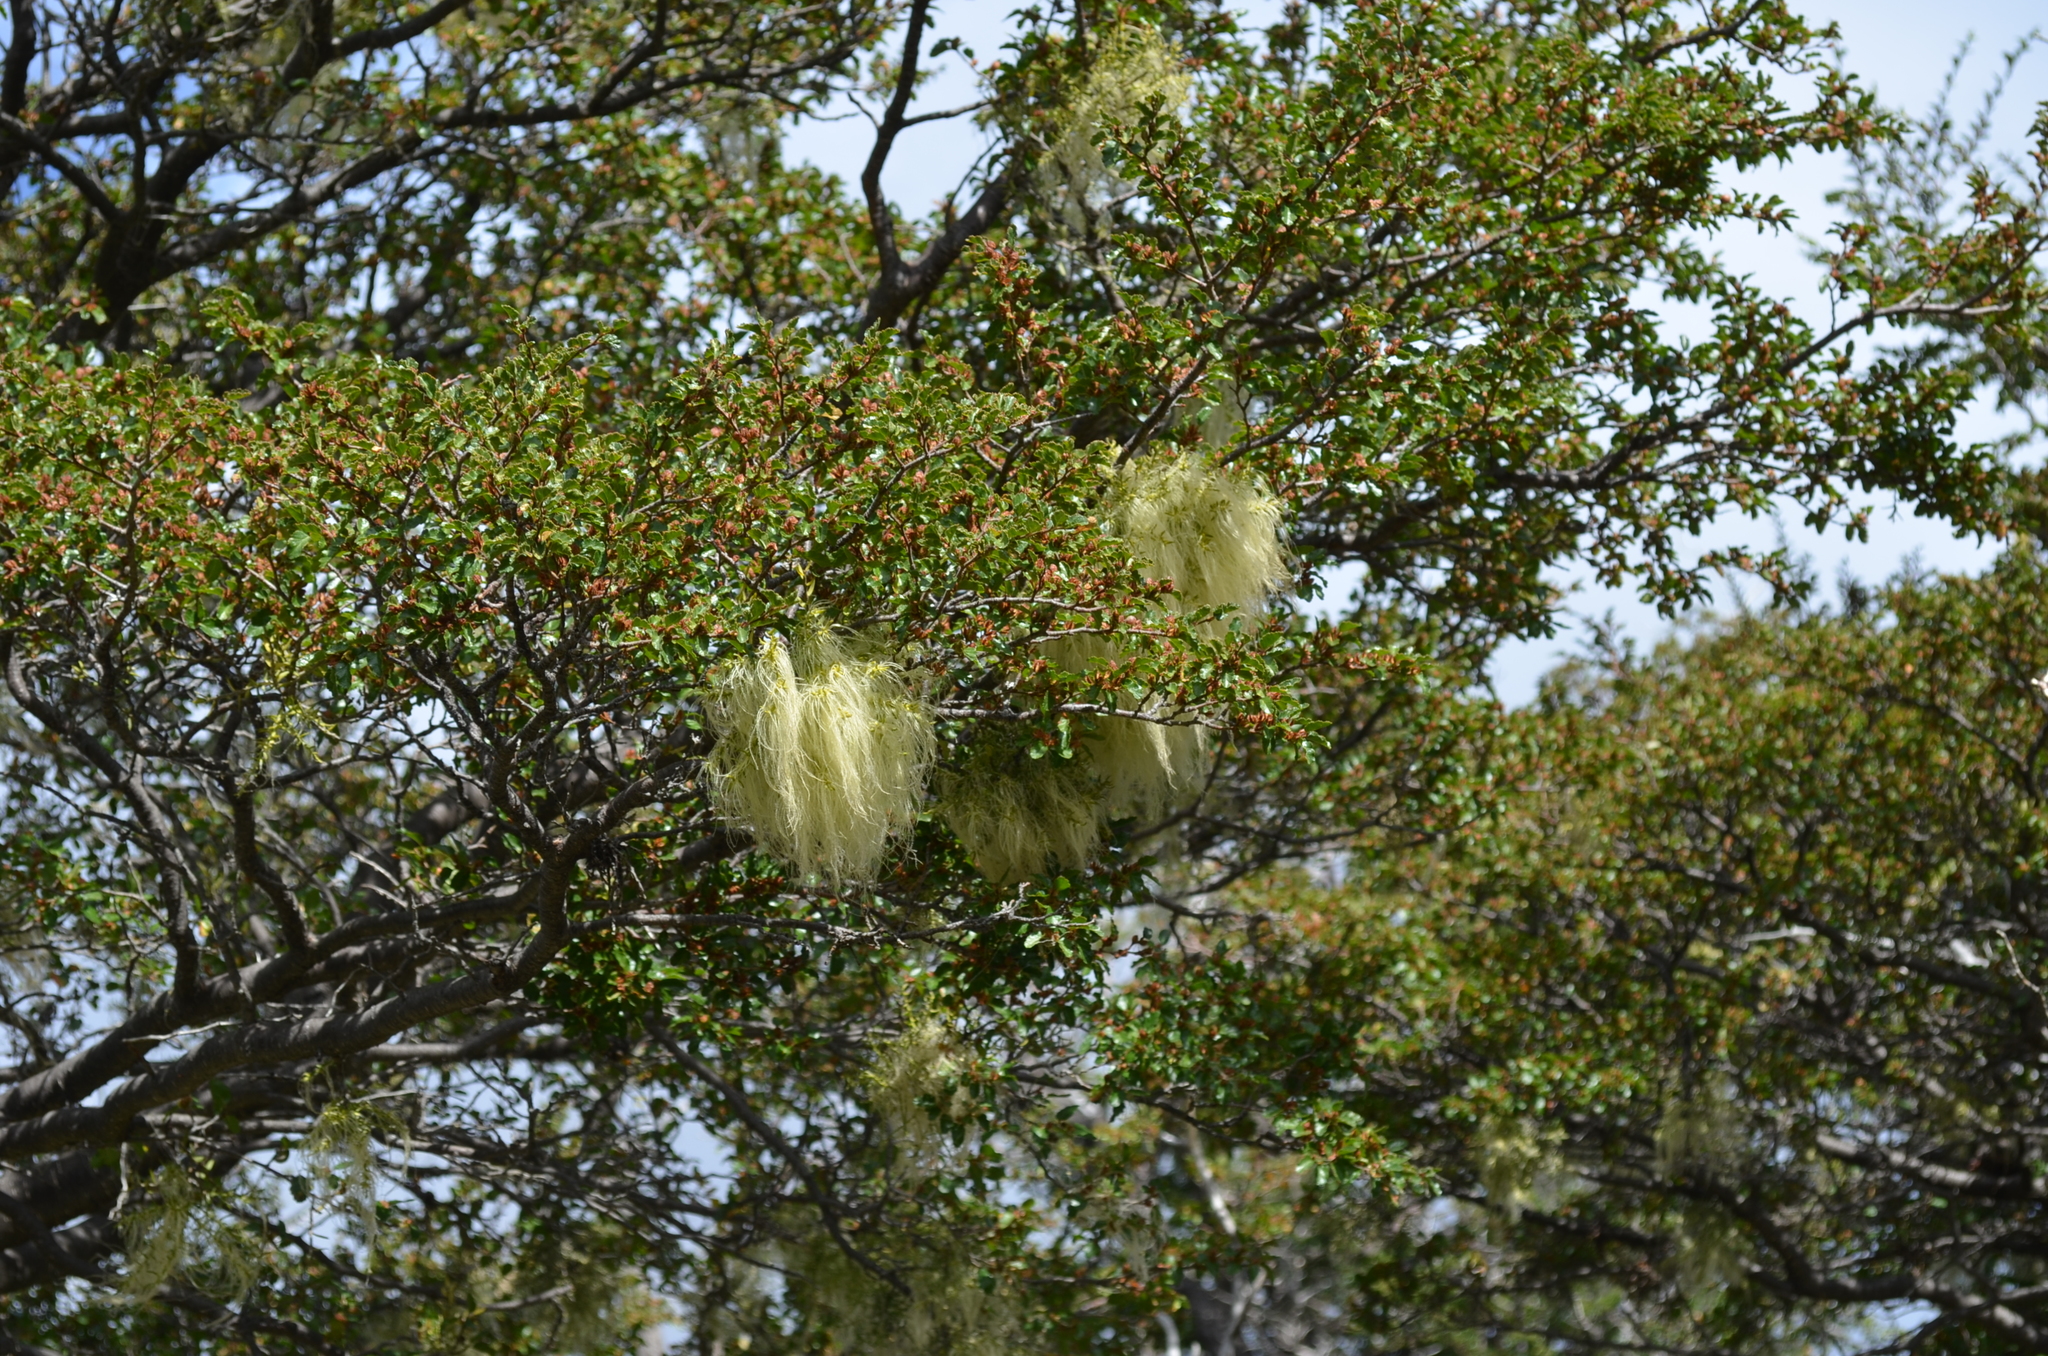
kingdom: Plantae
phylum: Tracheophyta
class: Magnoliopsida
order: Santalales
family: Misodendraceae
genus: Misodendrum
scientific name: Misodendrum linearifolium
